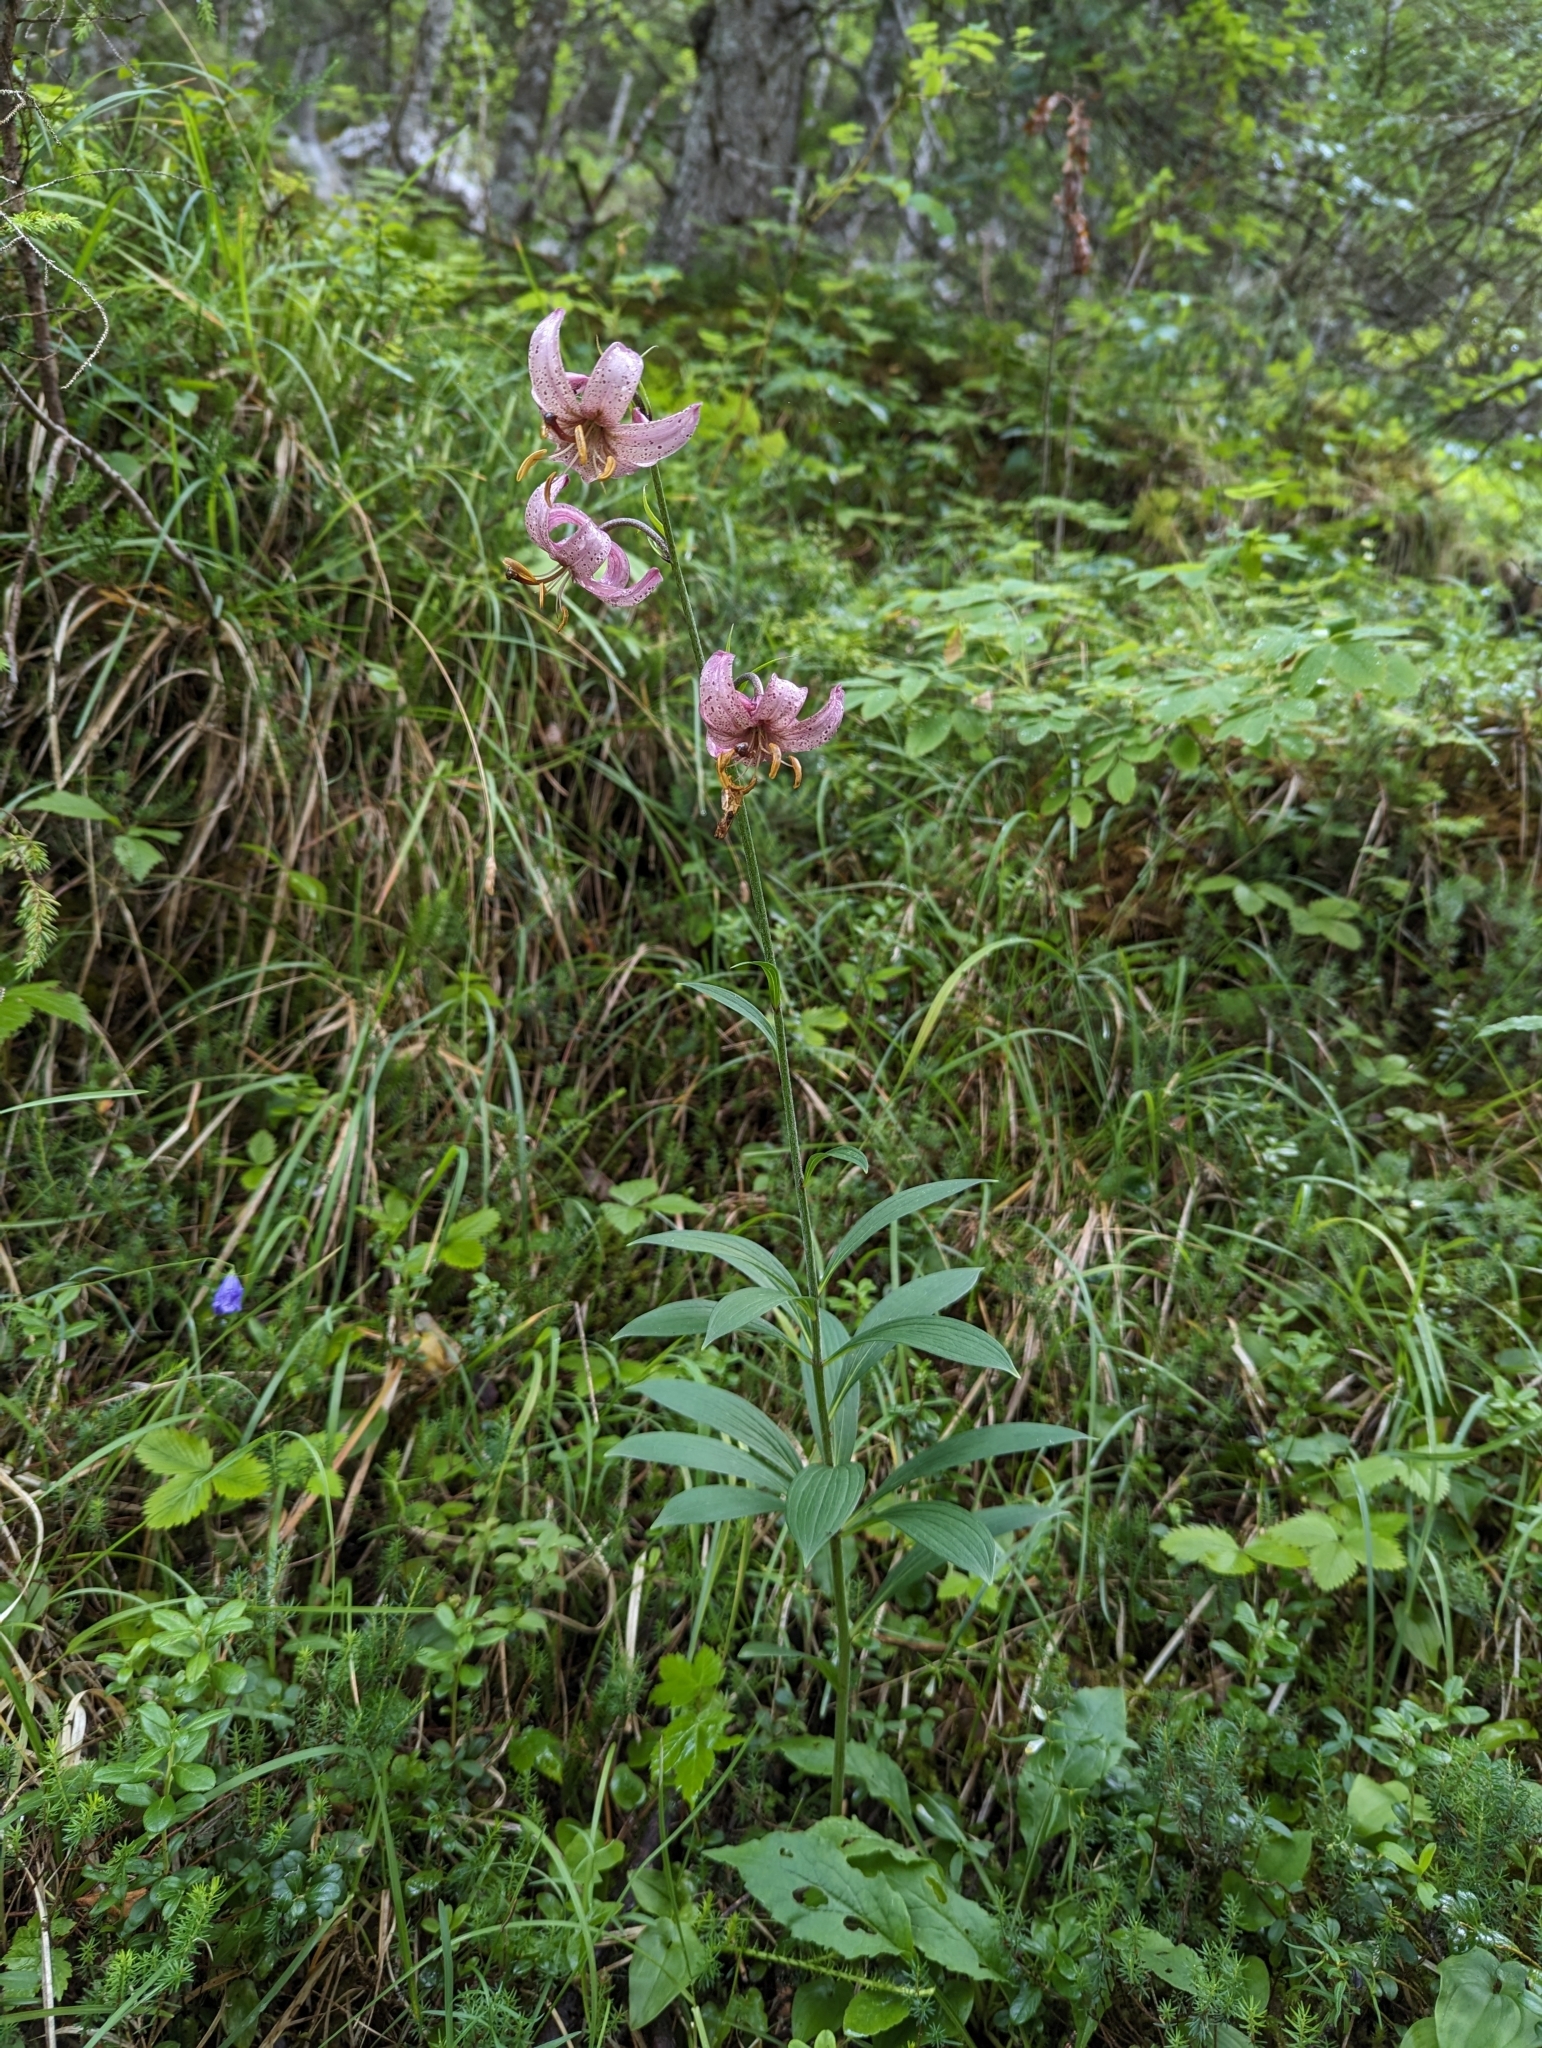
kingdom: Plantae
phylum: Tracheophyta
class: Liliopsida
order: Liliales
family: Liliaceae
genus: Lilium
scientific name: Lilium martagon
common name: Martagon lily
